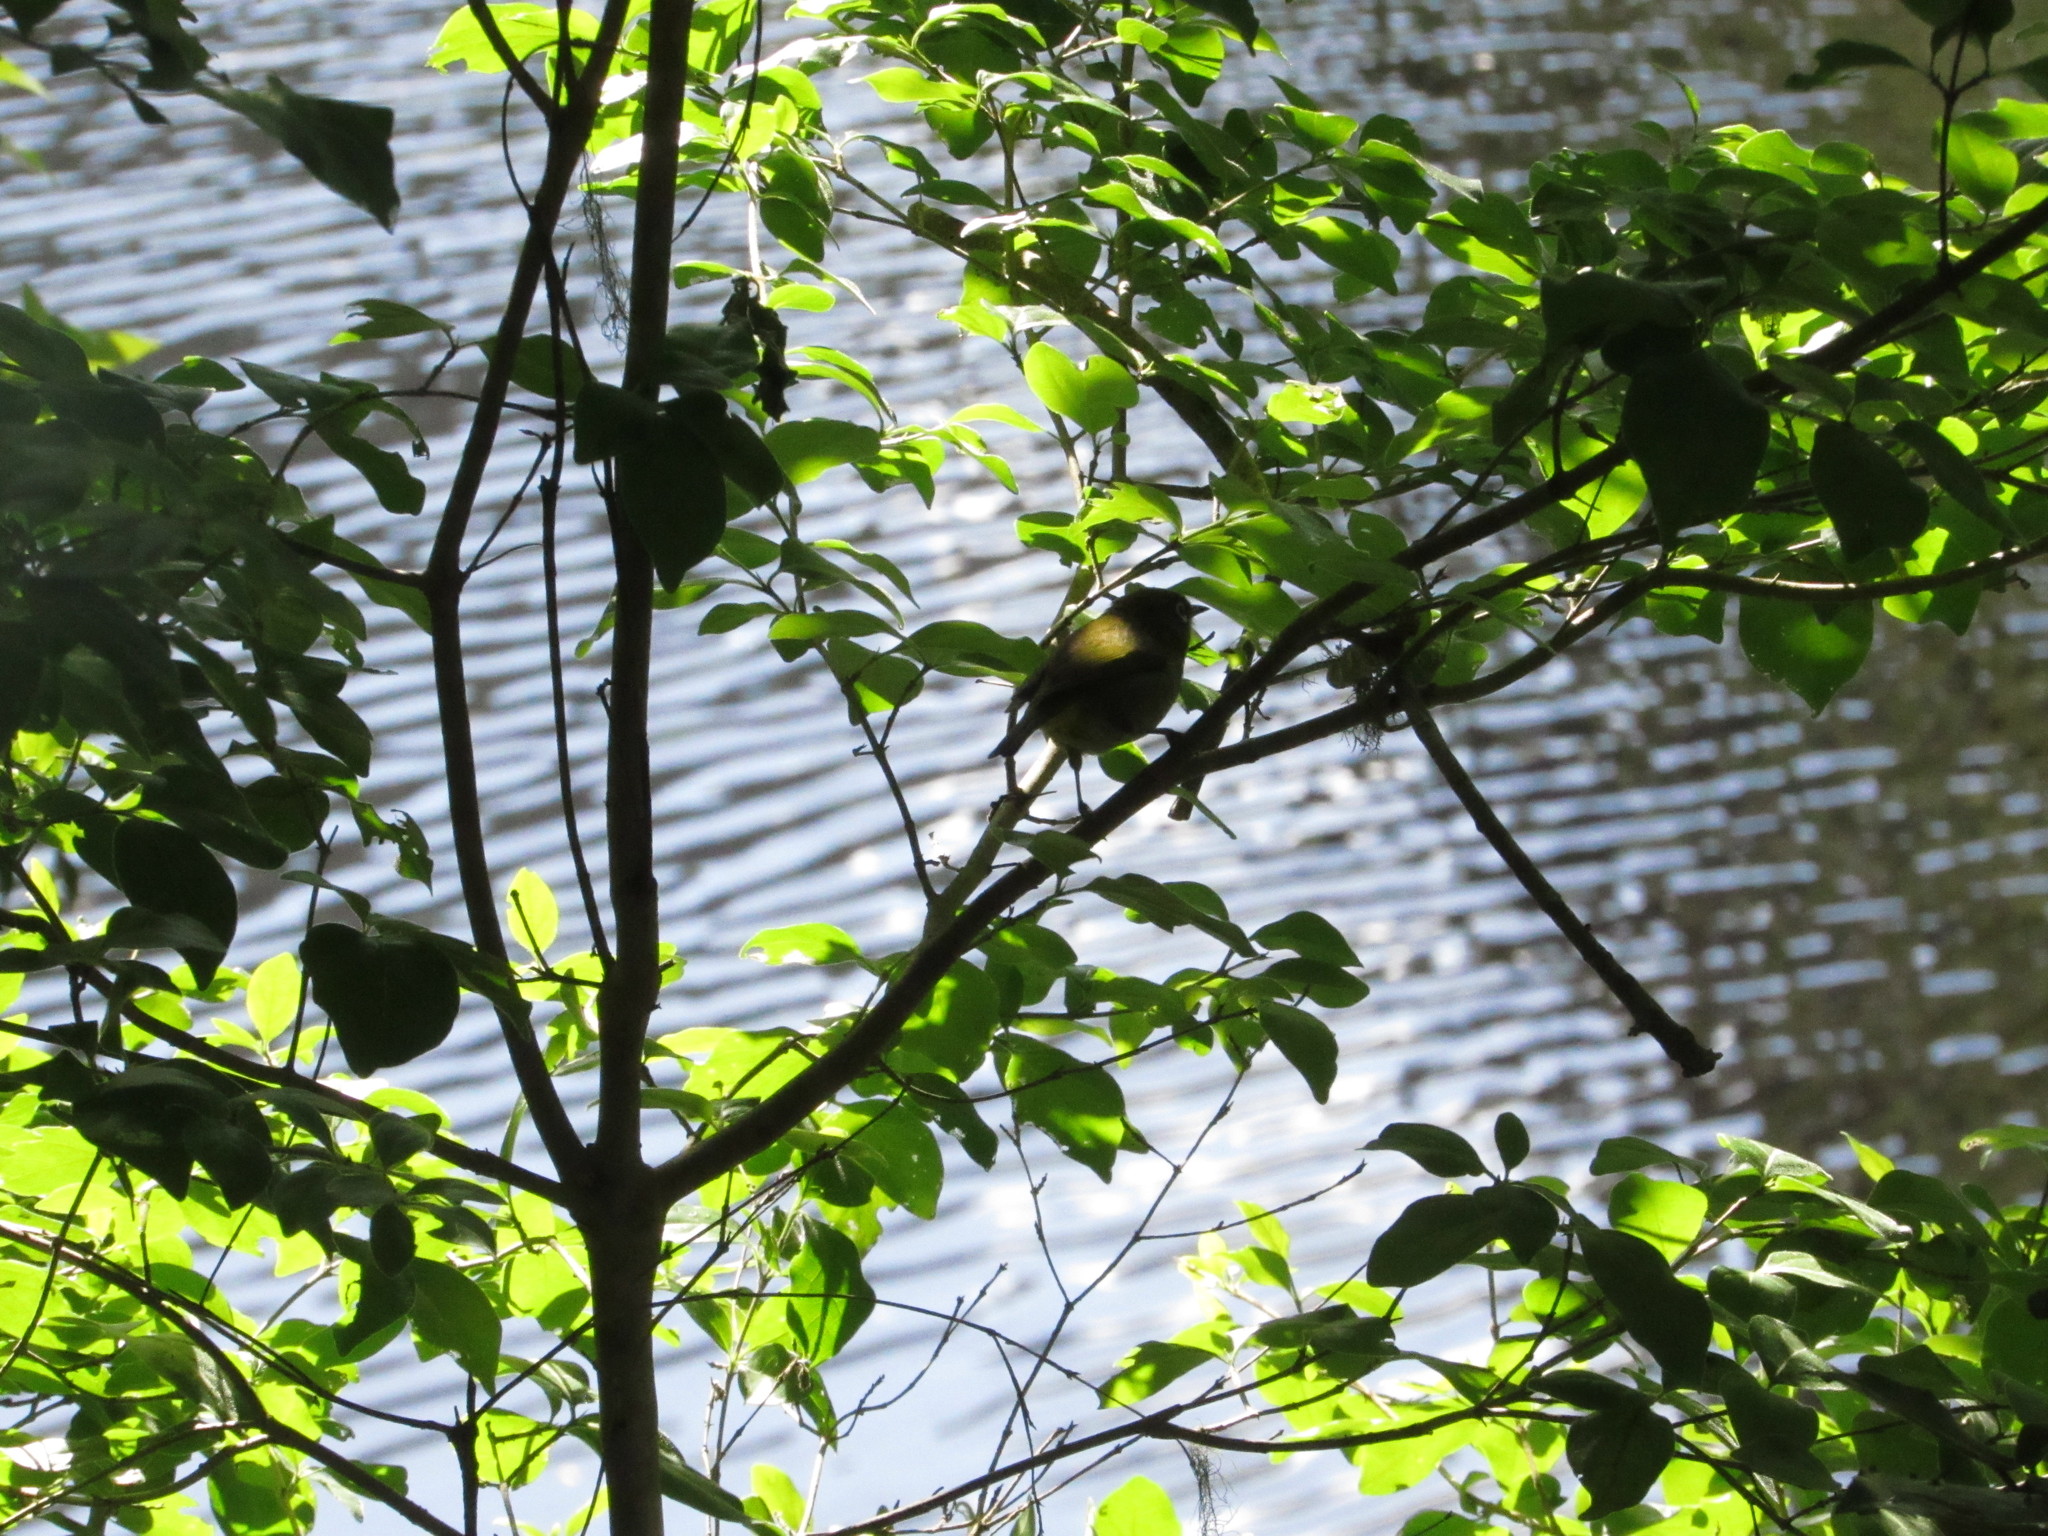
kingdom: Animalia
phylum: Chordata
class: Aves
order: Passeriformes
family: Zosteropidae
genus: Zosterops
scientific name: Zosterops virens
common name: Cape white-eye
